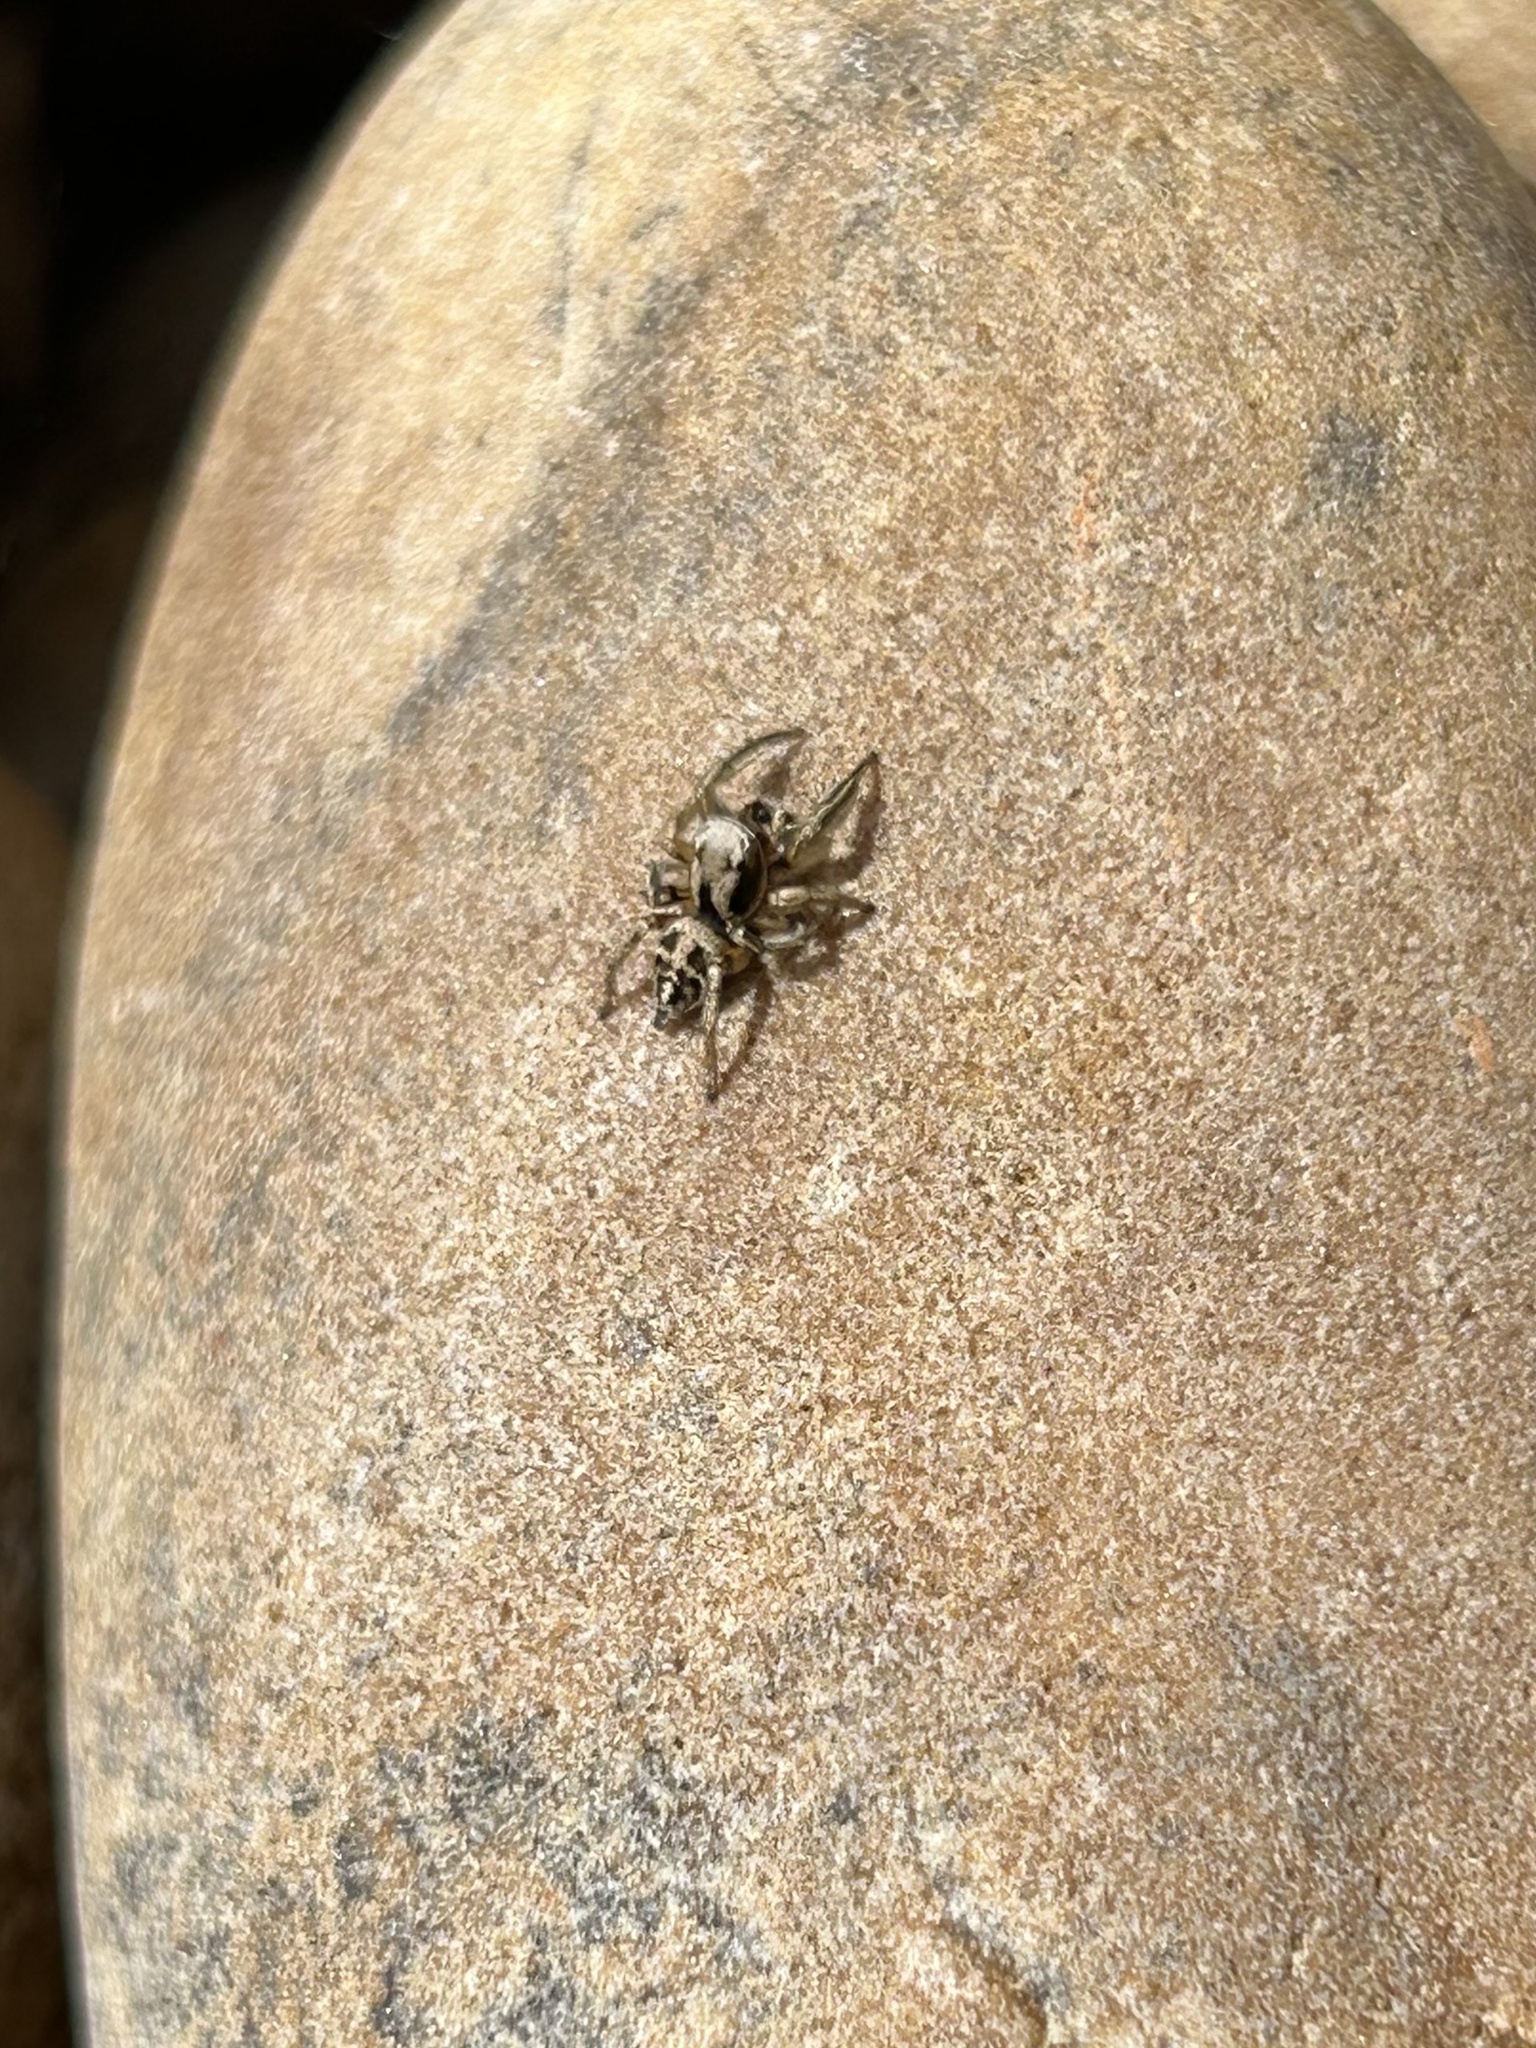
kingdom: Animalia
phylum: Arthropoda
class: Arachnida
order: Araneae
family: Salticidae
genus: Habronattus
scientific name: Habronattus festus
